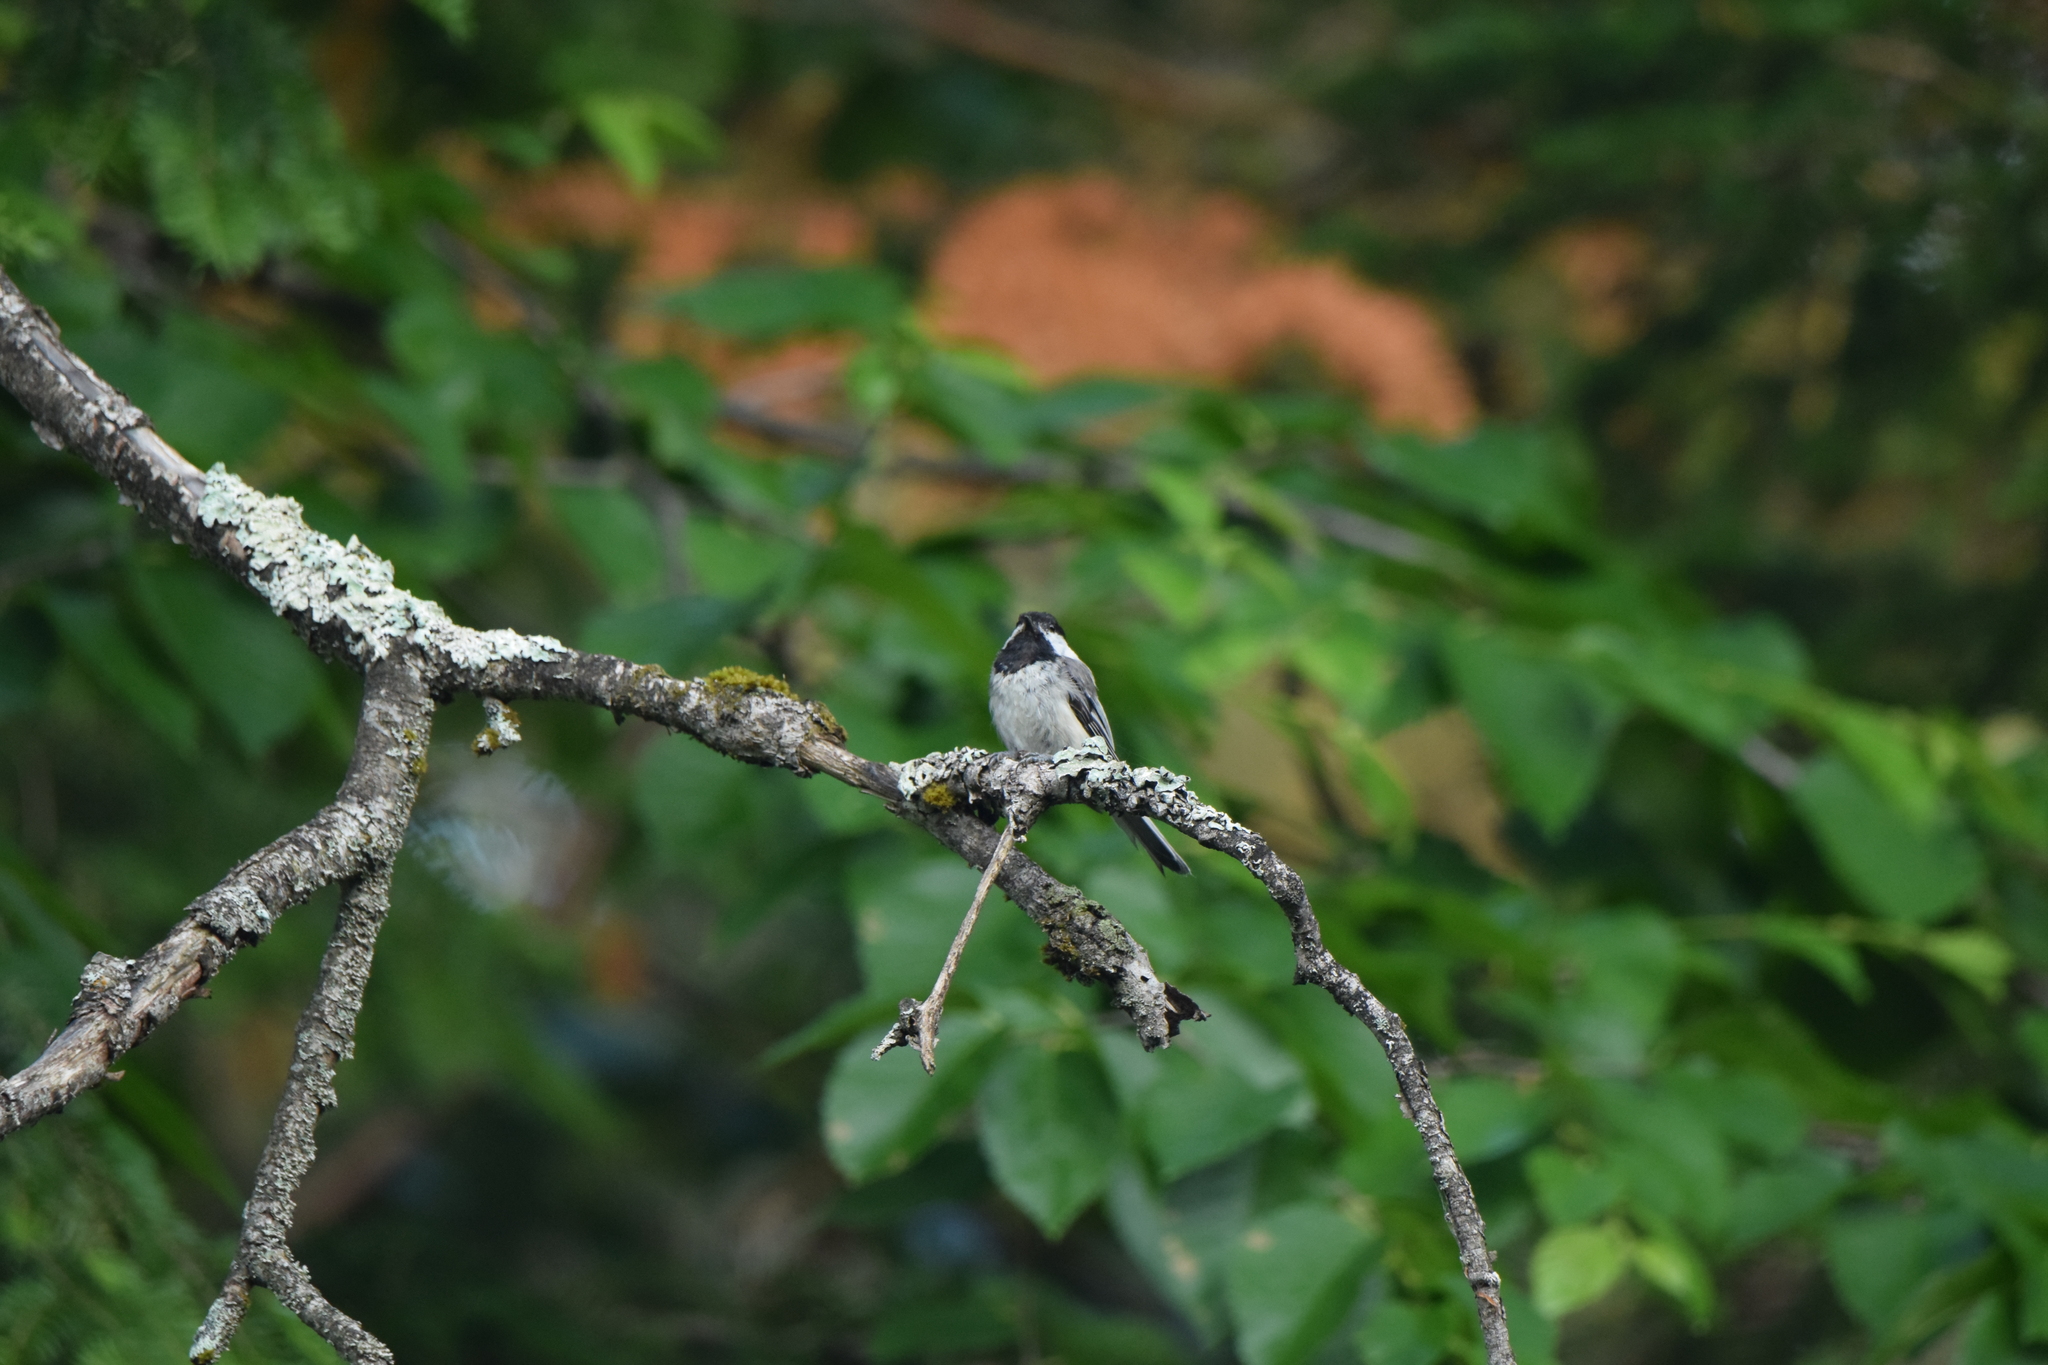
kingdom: Animalia
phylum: Chordata
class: Aves
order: Passeriformes
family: Paridae
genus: Poecile
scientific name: Poecile atricapillus
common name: Black-capped chickadee
